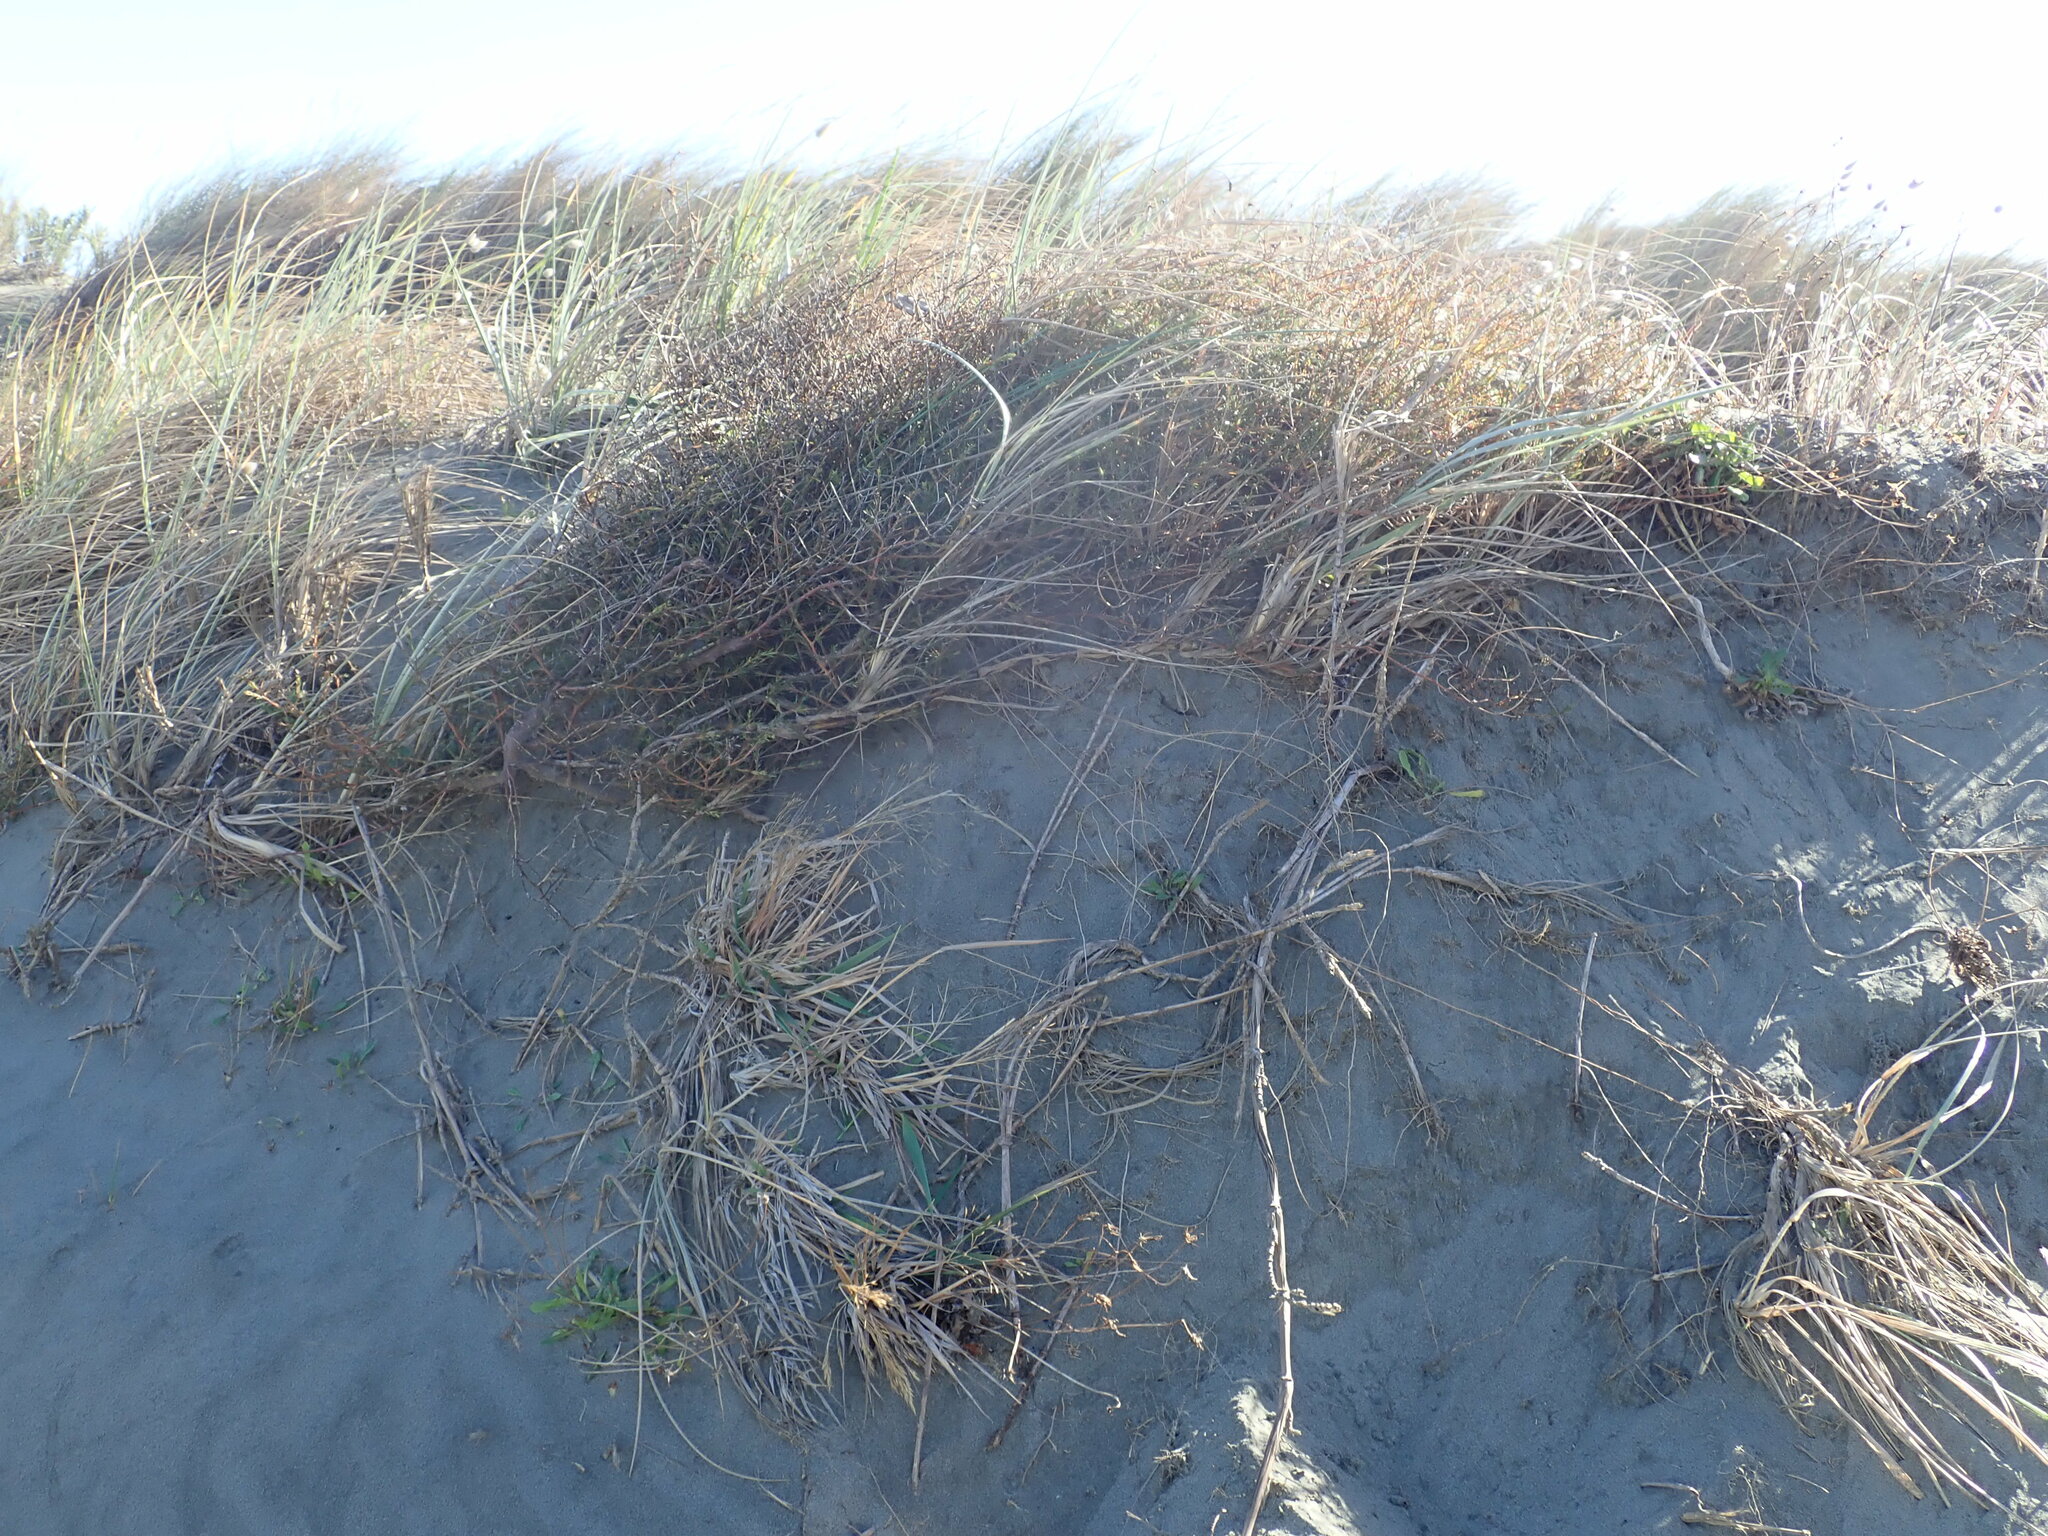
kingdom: Plantae
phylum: Tracheophyta
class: Magnoliopsida
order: Gentianales
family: Rubiaceae
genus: Coprosma
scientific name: Coprosma acerosa
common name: Sand coprosma
